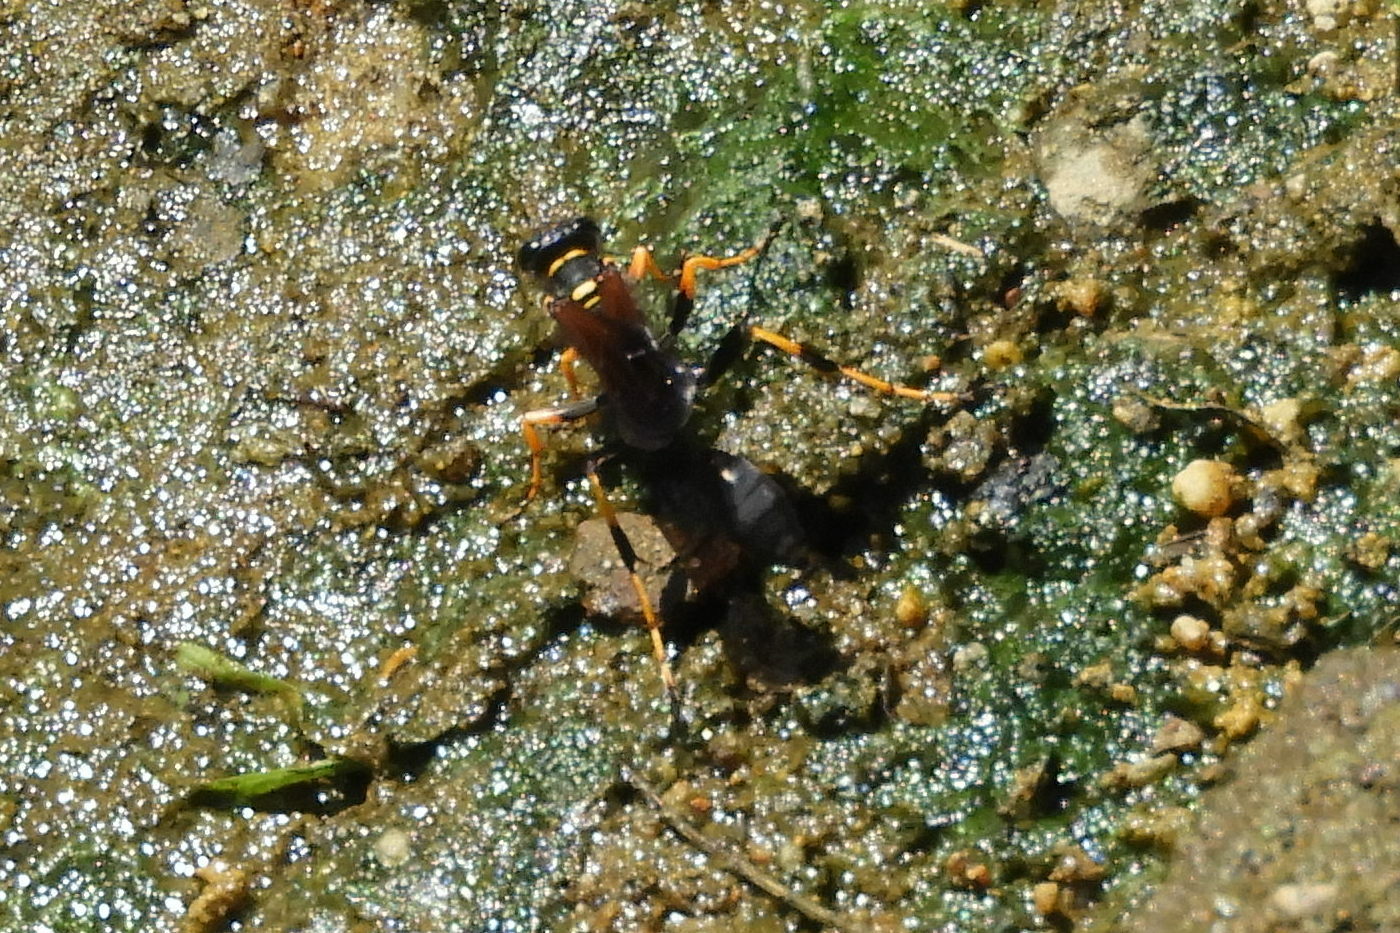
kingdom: Animalia
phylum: Arthropoda
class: Insecta
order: Hymenoptera
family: Sphecidae
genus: Sceliphron
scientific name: Sceliphron caementarium
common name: Mud dauber
